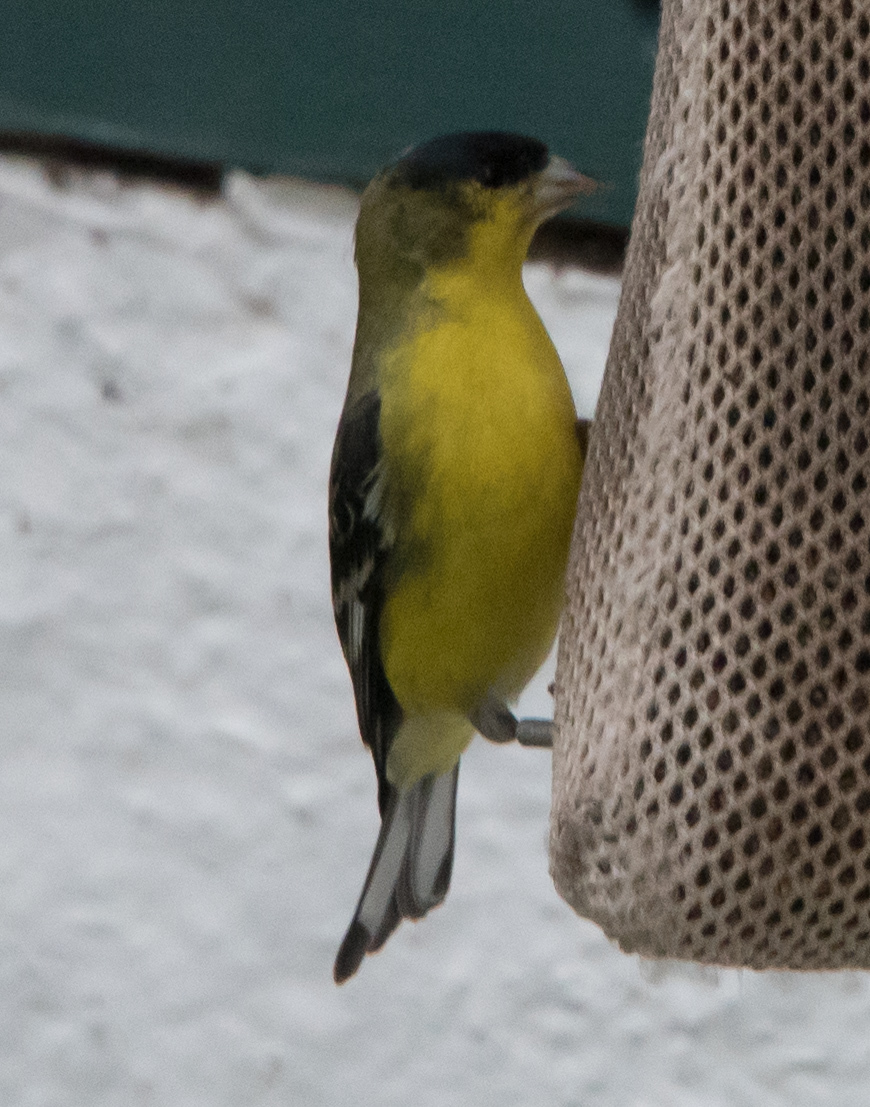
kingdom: Animalia
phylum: Chordata
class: Aves
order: Passeriformes
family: Fringillidae
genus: Spinus
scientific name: Spinus psaltria
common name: Lesser goldfinch
